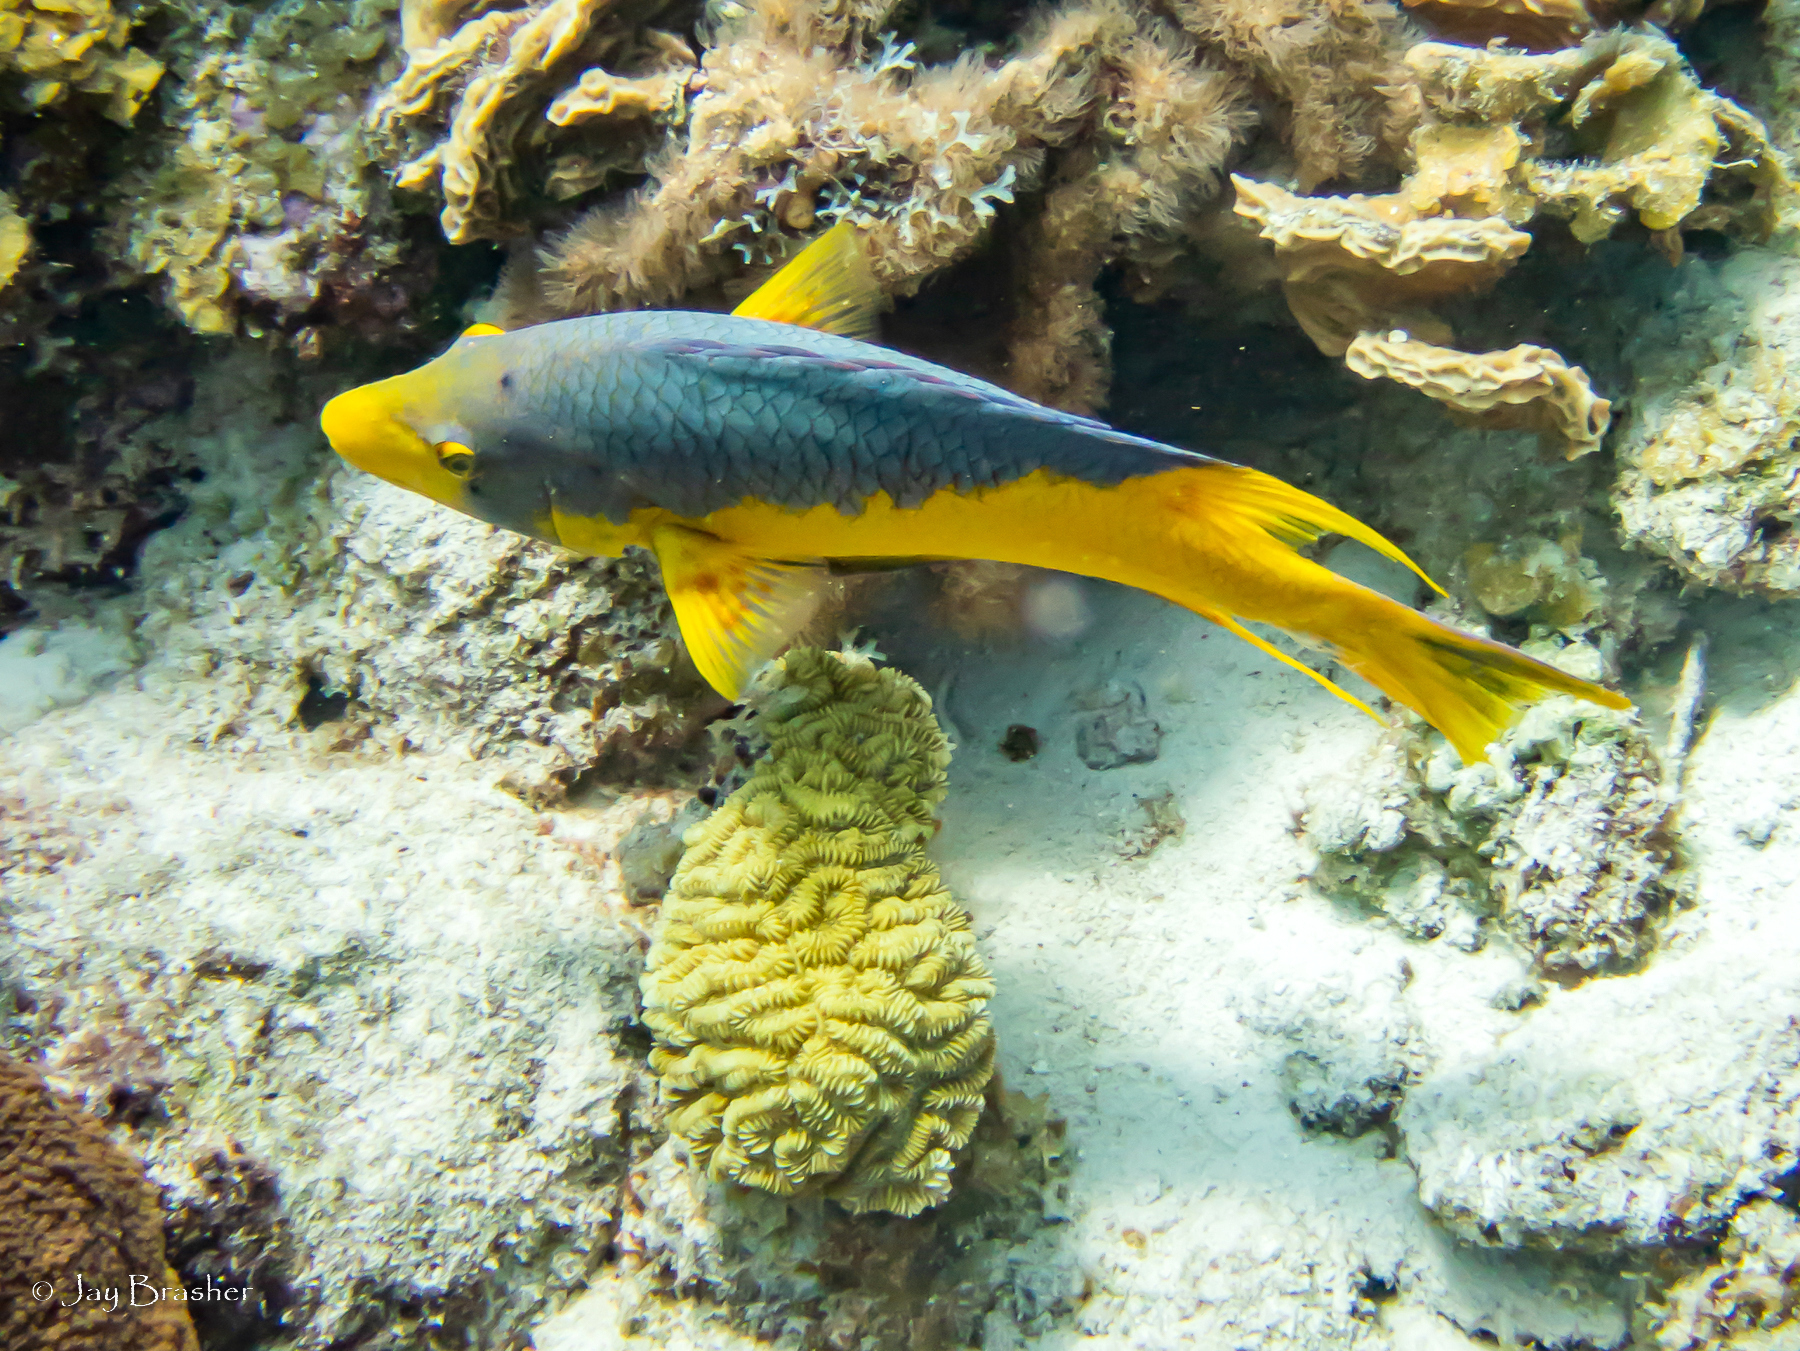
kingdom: Animalia
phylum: Chordata
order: Perciformes
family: Labridae
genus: Bodianus
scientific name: Bodianus rufus
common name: Spanish hogfish
